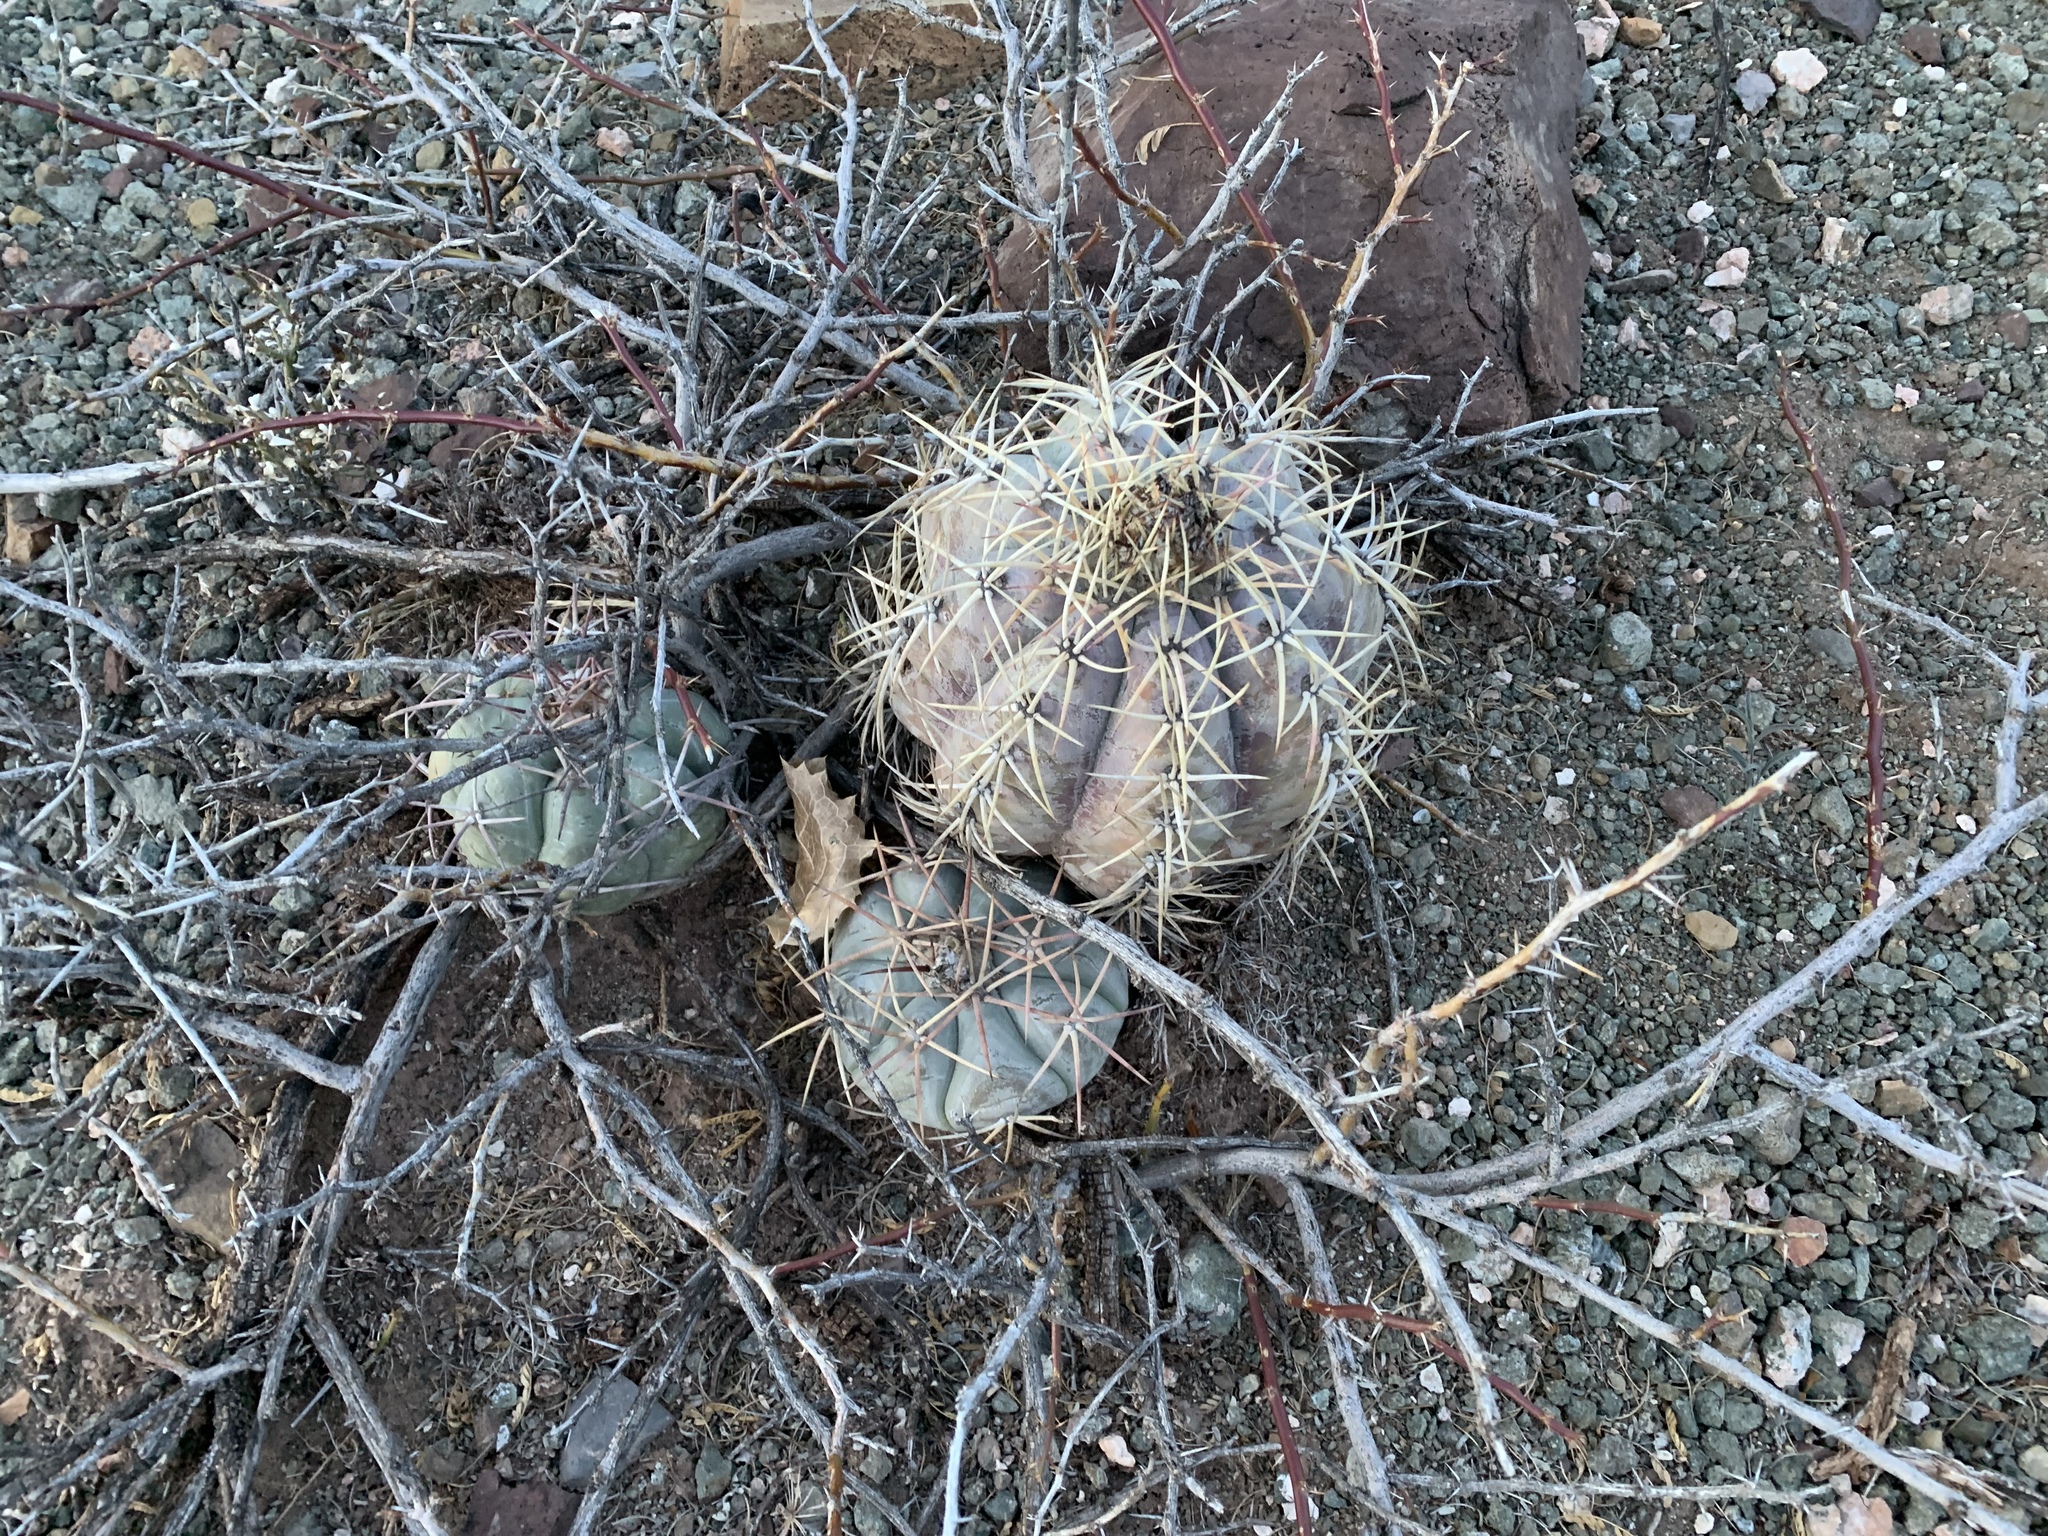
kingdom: Plantae
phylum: Tracheophyta
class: Magnoliopsida
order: Caryophyllales
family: Cactaceae
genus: Echinocactus
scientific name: Echinocactus horizonthalonius
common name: Devilshead
